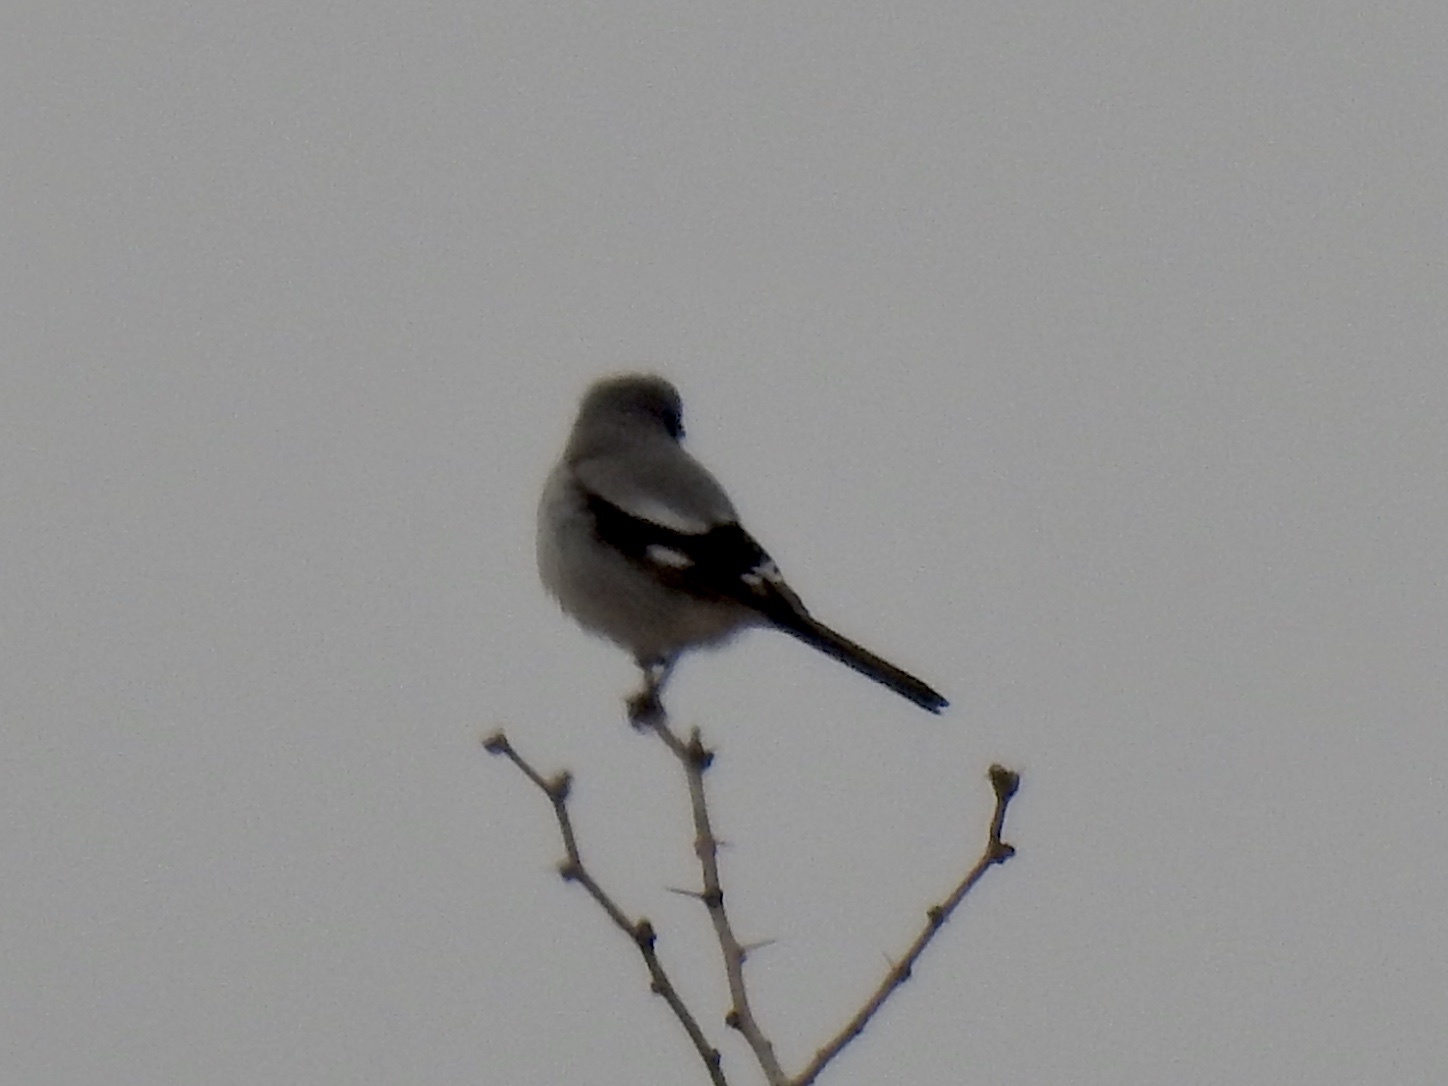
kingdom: Animalia
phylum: Chordata
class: Aves
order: Passeriformes
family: Laniidae
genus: Lanius
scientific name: Lanius ludovicianus
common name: Loggerhead shrike
